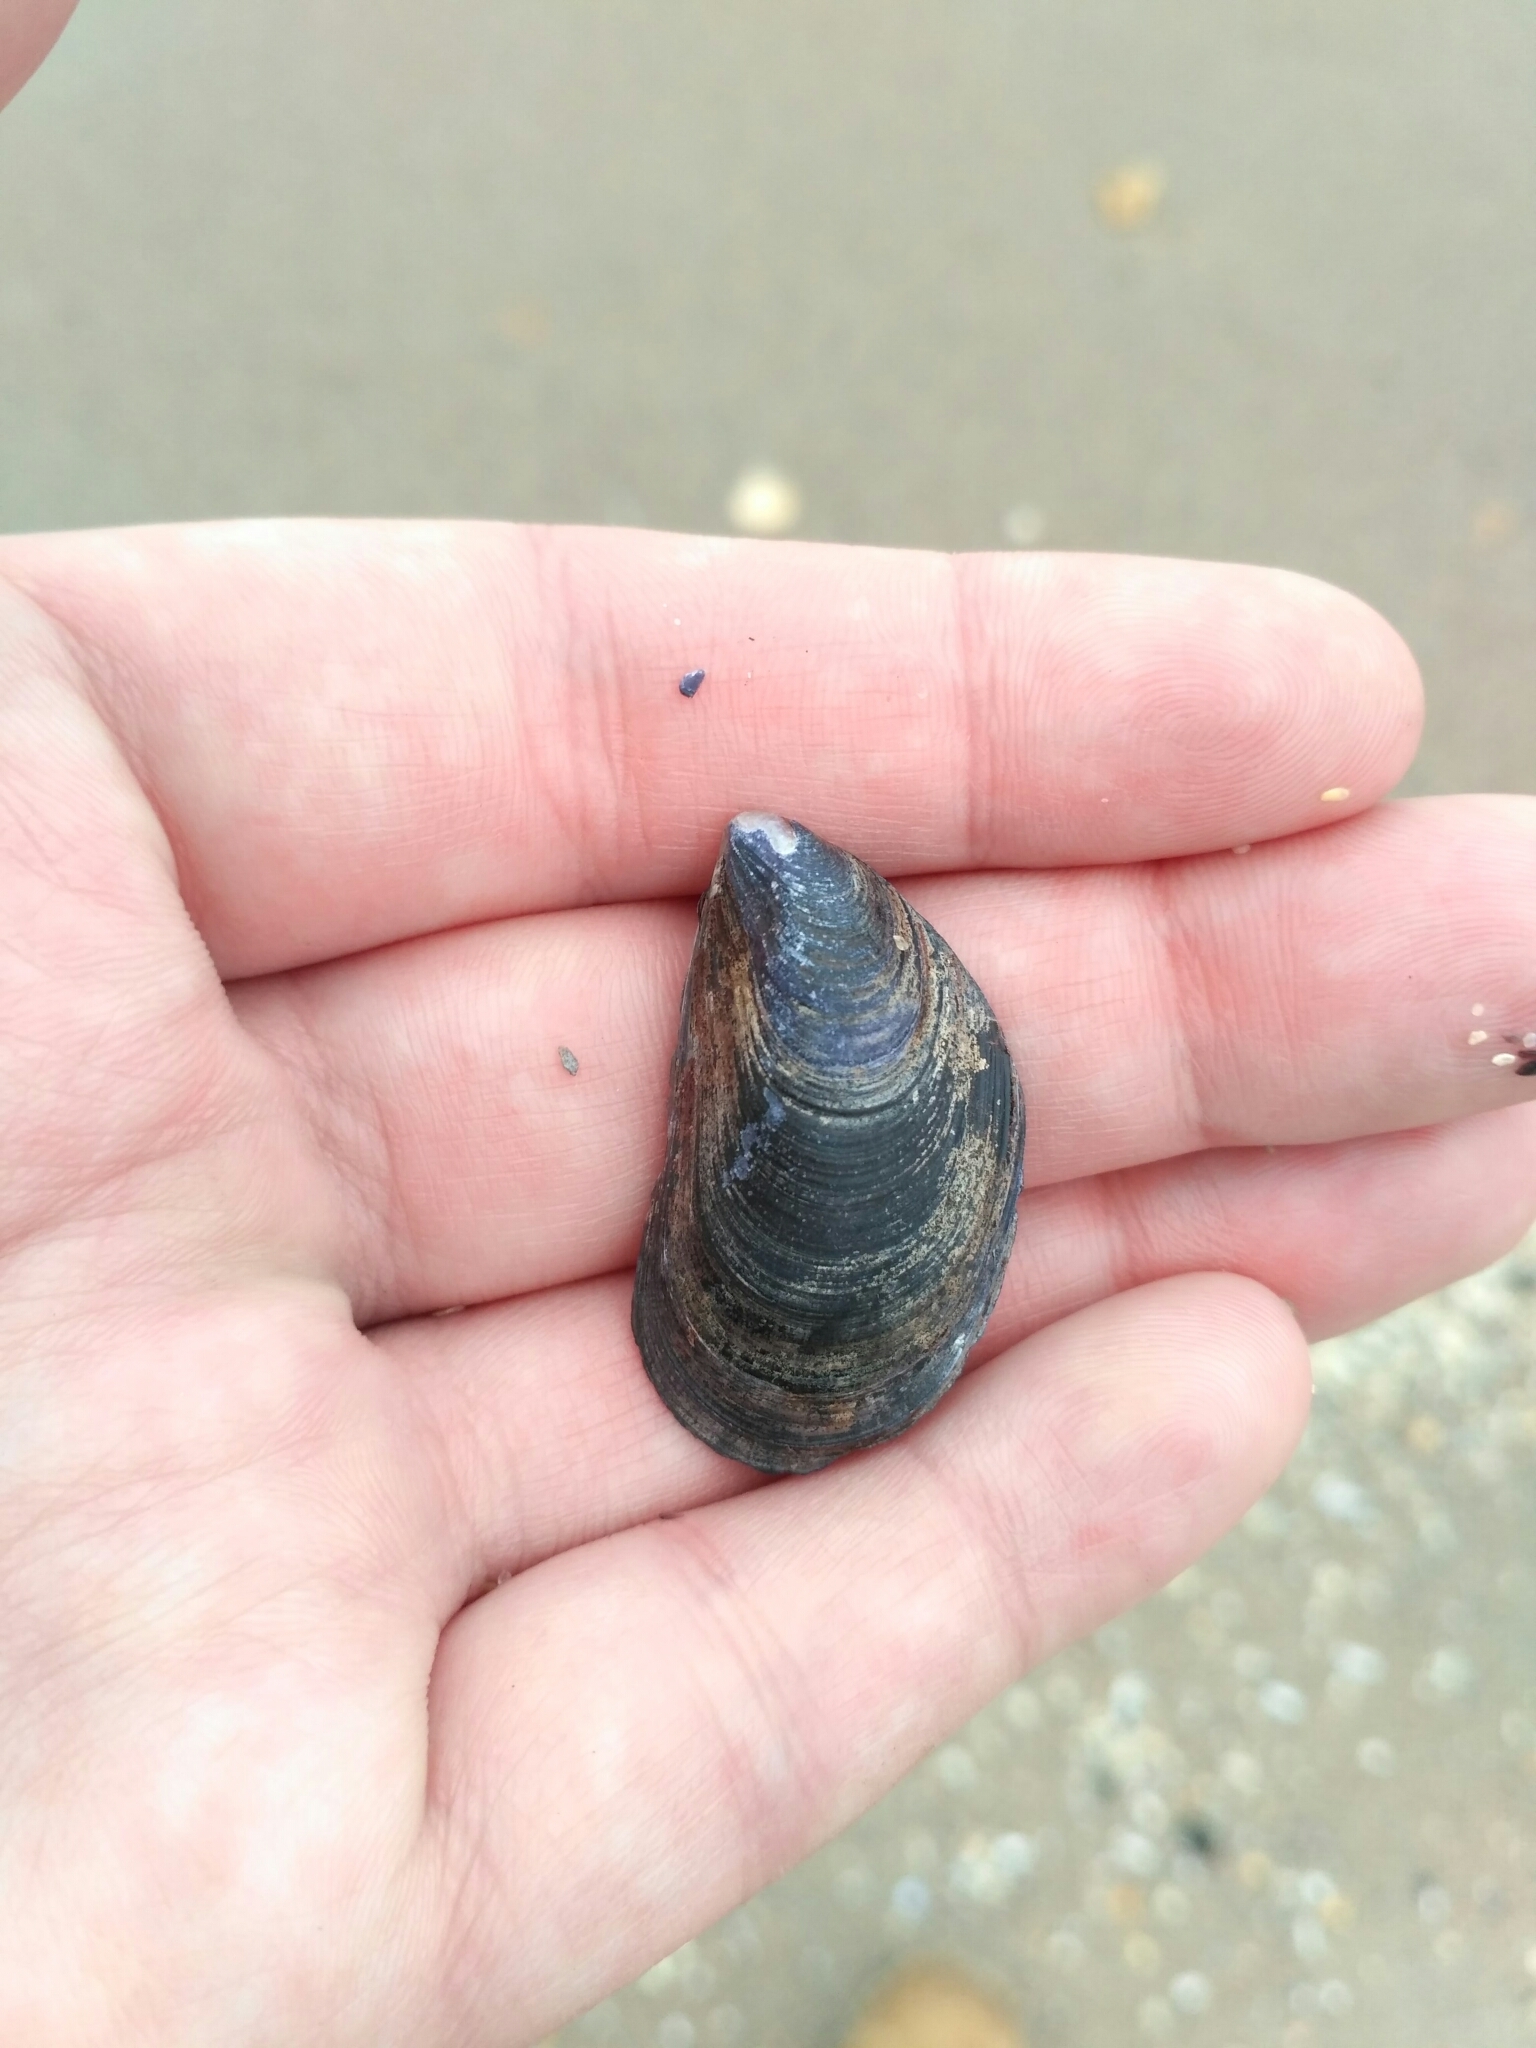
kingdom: Animalia
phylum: Mollusca
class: Bivalvia
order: Mytilida
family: Mytilidae
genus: Mytilus
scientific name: Mytilus galloprovincialis
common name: Mediterranean mussel
